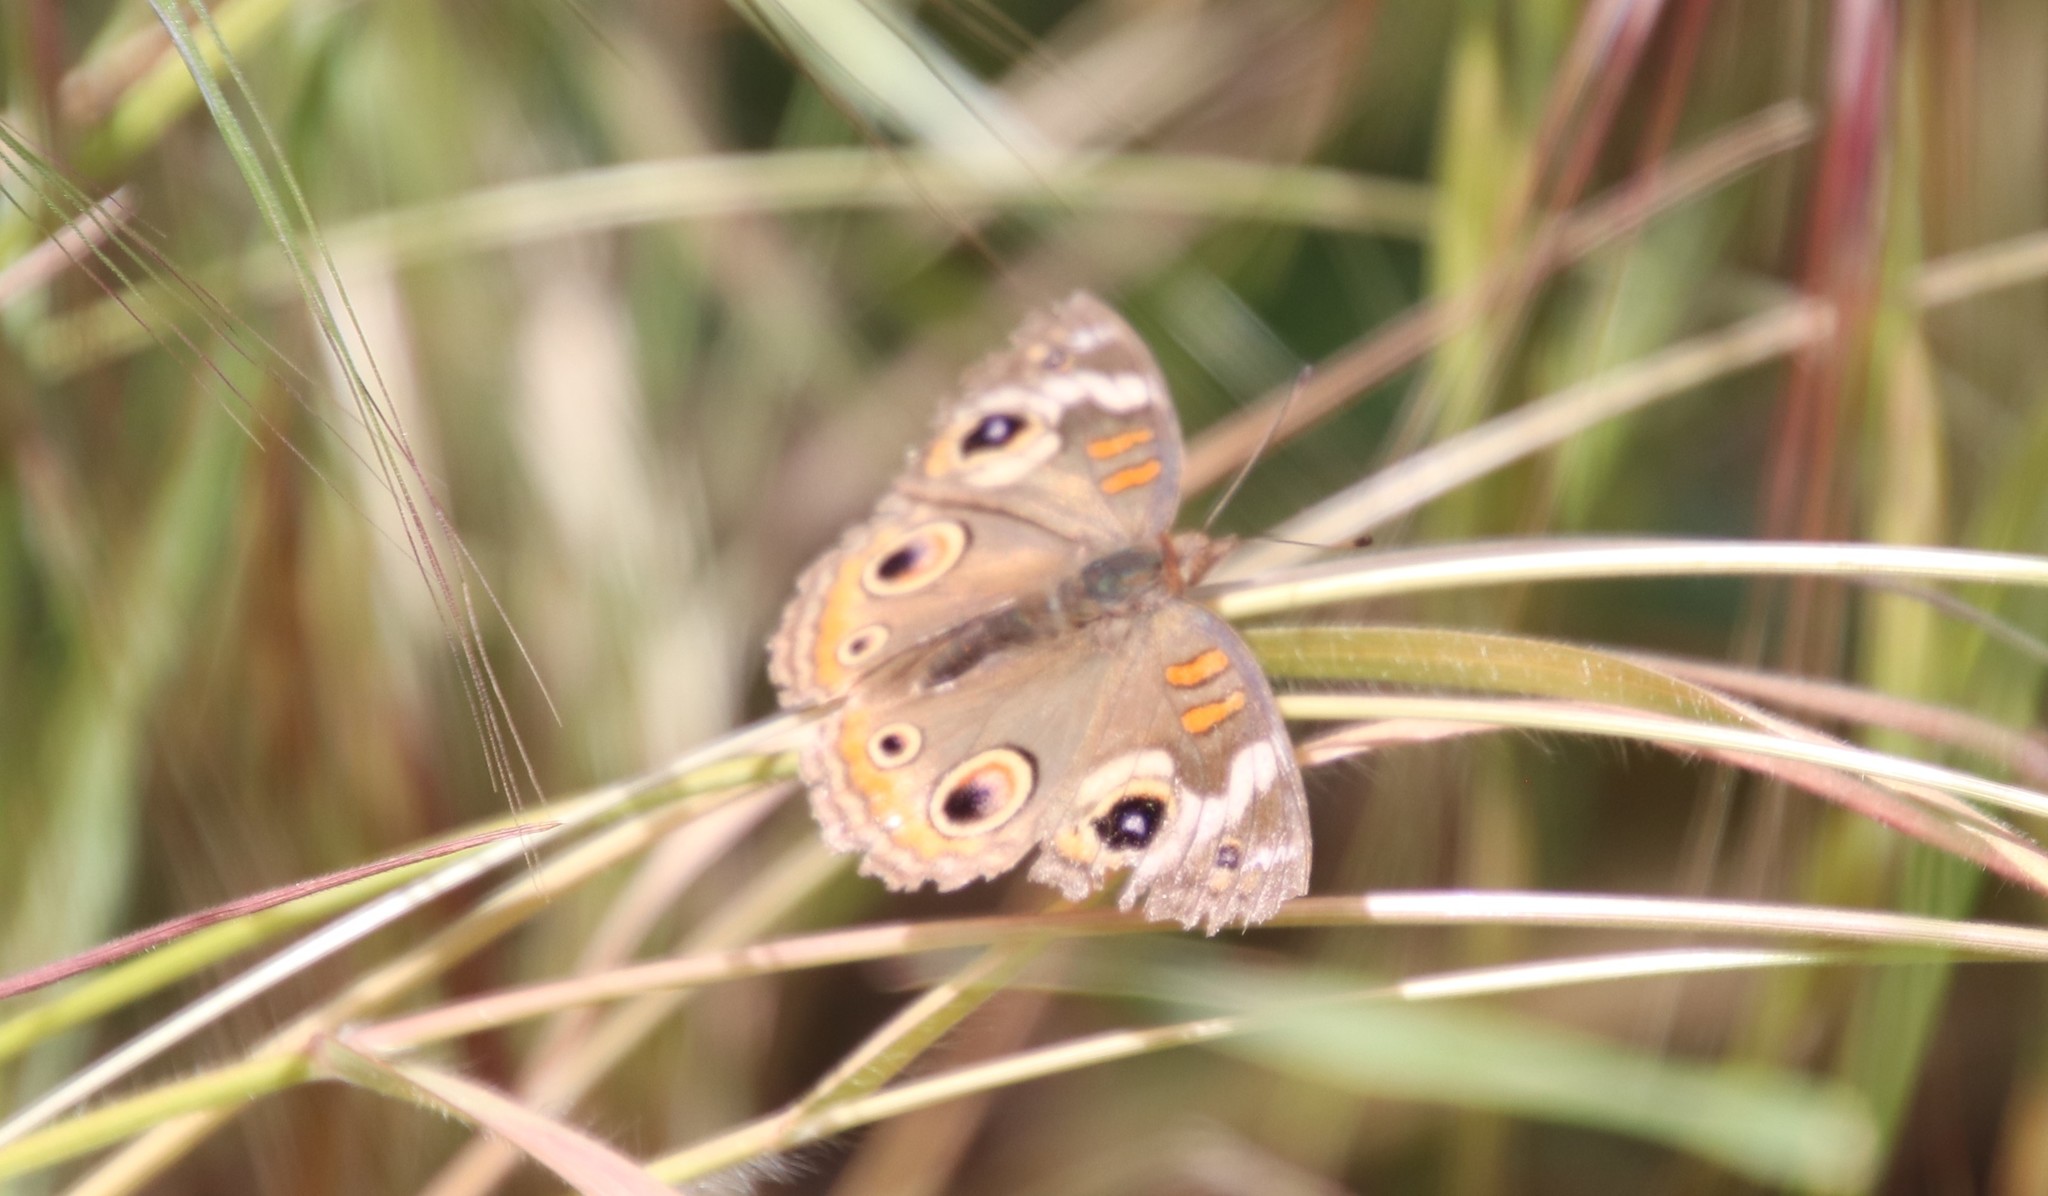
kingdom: Animalia
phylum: Arthropoda
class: Insecta
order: Lepidoptera
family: Nymphalidae
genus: Junonia
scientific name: Junonia grisea
